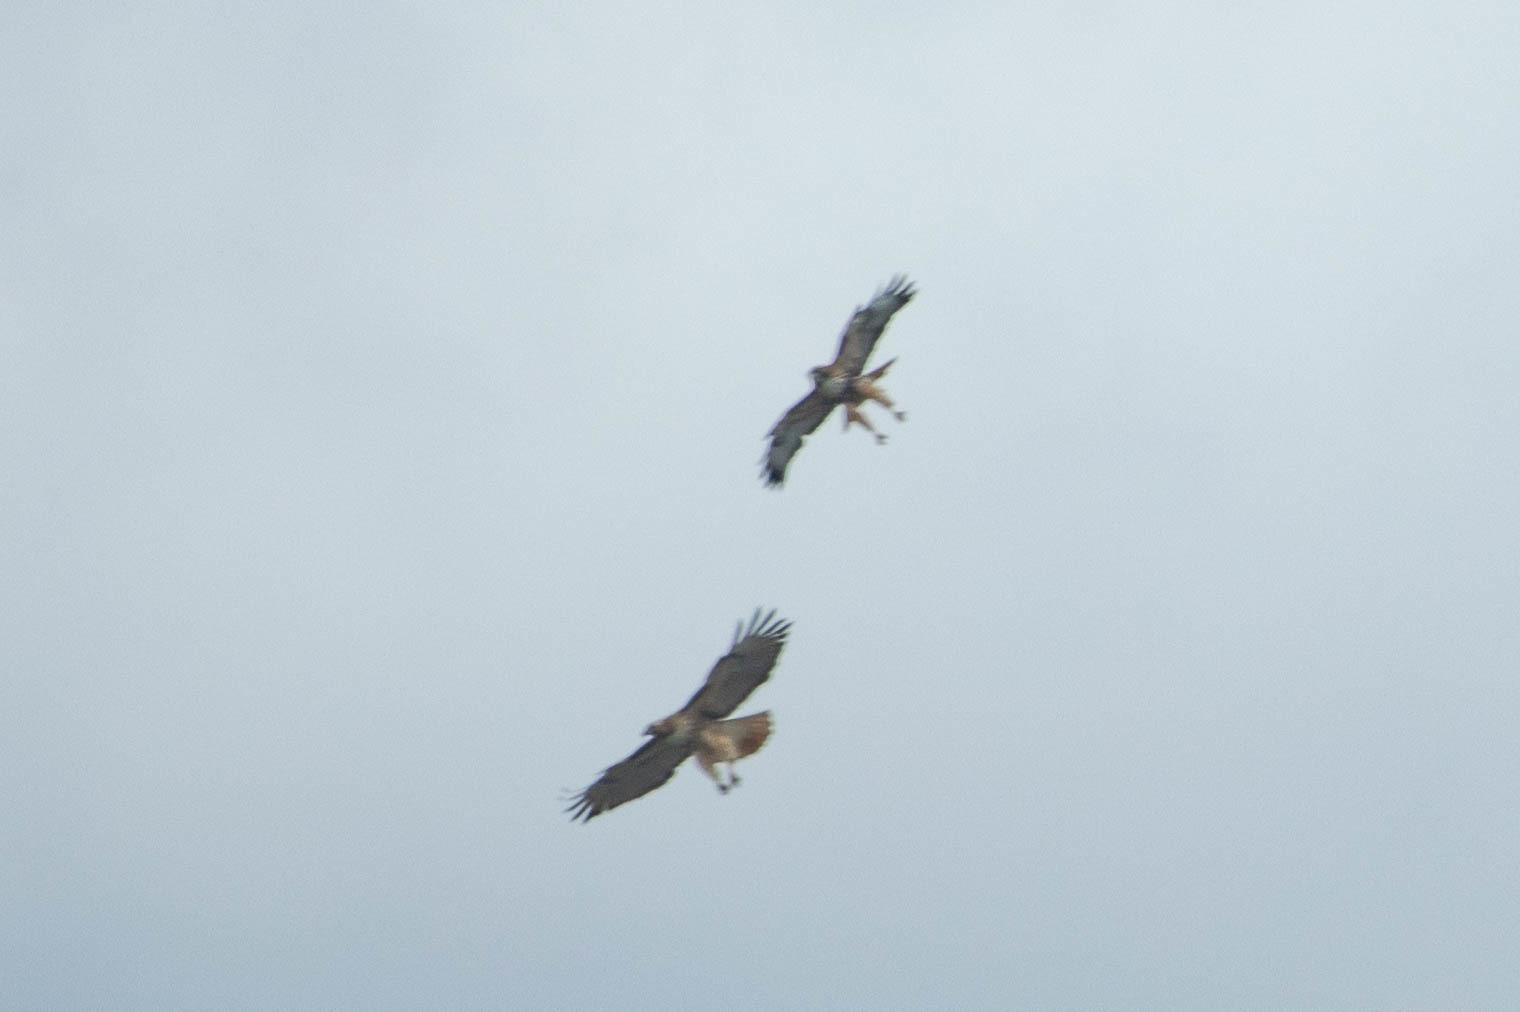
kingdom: Animalia
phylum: Chordata
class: Aves
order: Accipitriformes
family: Accipitridae
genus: Buteo
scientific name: Buteo jamaicensis
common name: Red-tailed hawk
